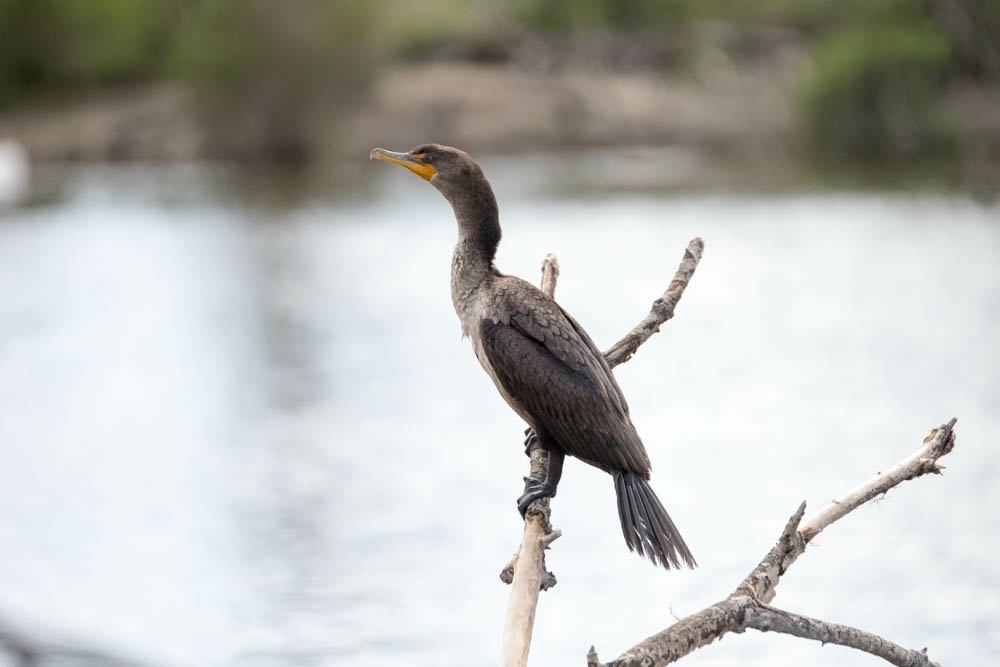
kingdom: Animalia
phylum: Chordata
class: Aves
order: Suliformes
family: Phalacrocoracidae
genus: Phalacrocorax
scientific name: Phalacrocorax auritus
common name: Double-crested cormorant
